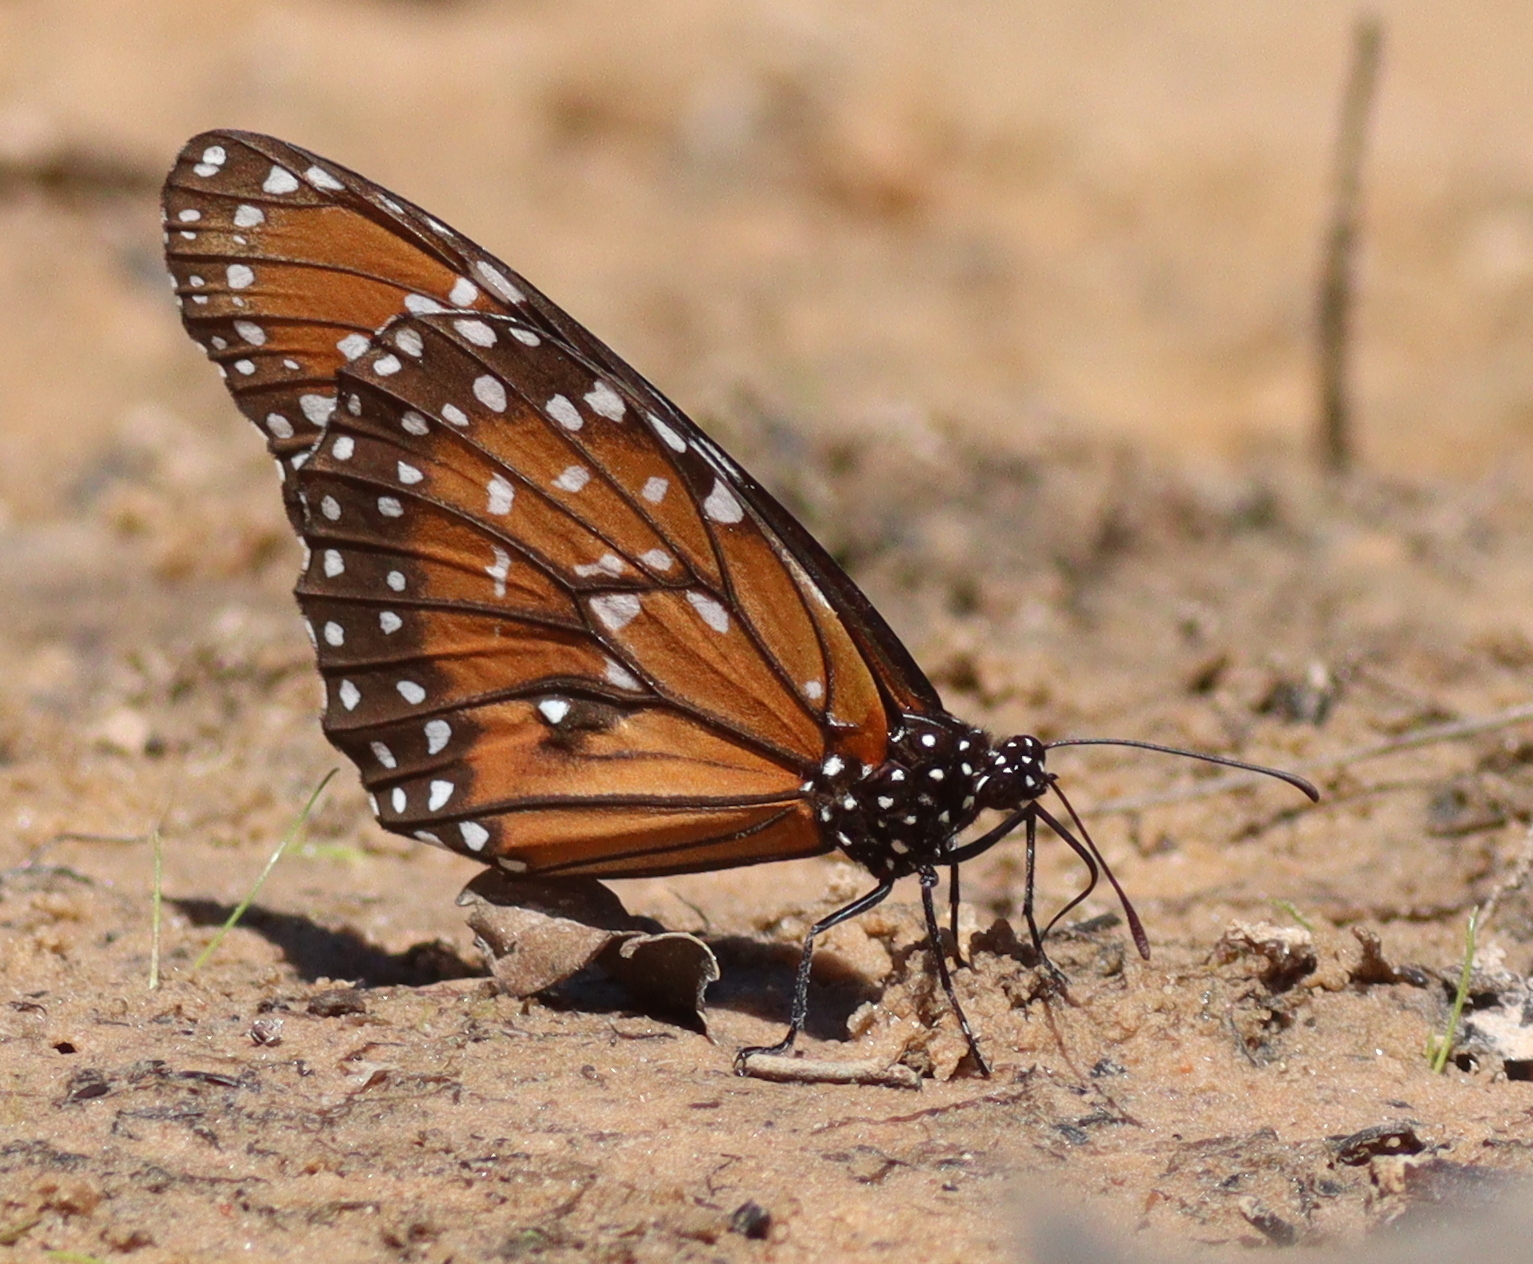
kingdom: Animalia
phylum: Arthropoda
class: Insecta
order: Lepidoptera
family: Nymphalidae
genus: Danaus
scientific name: Danaus eresimus
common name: Soldier
